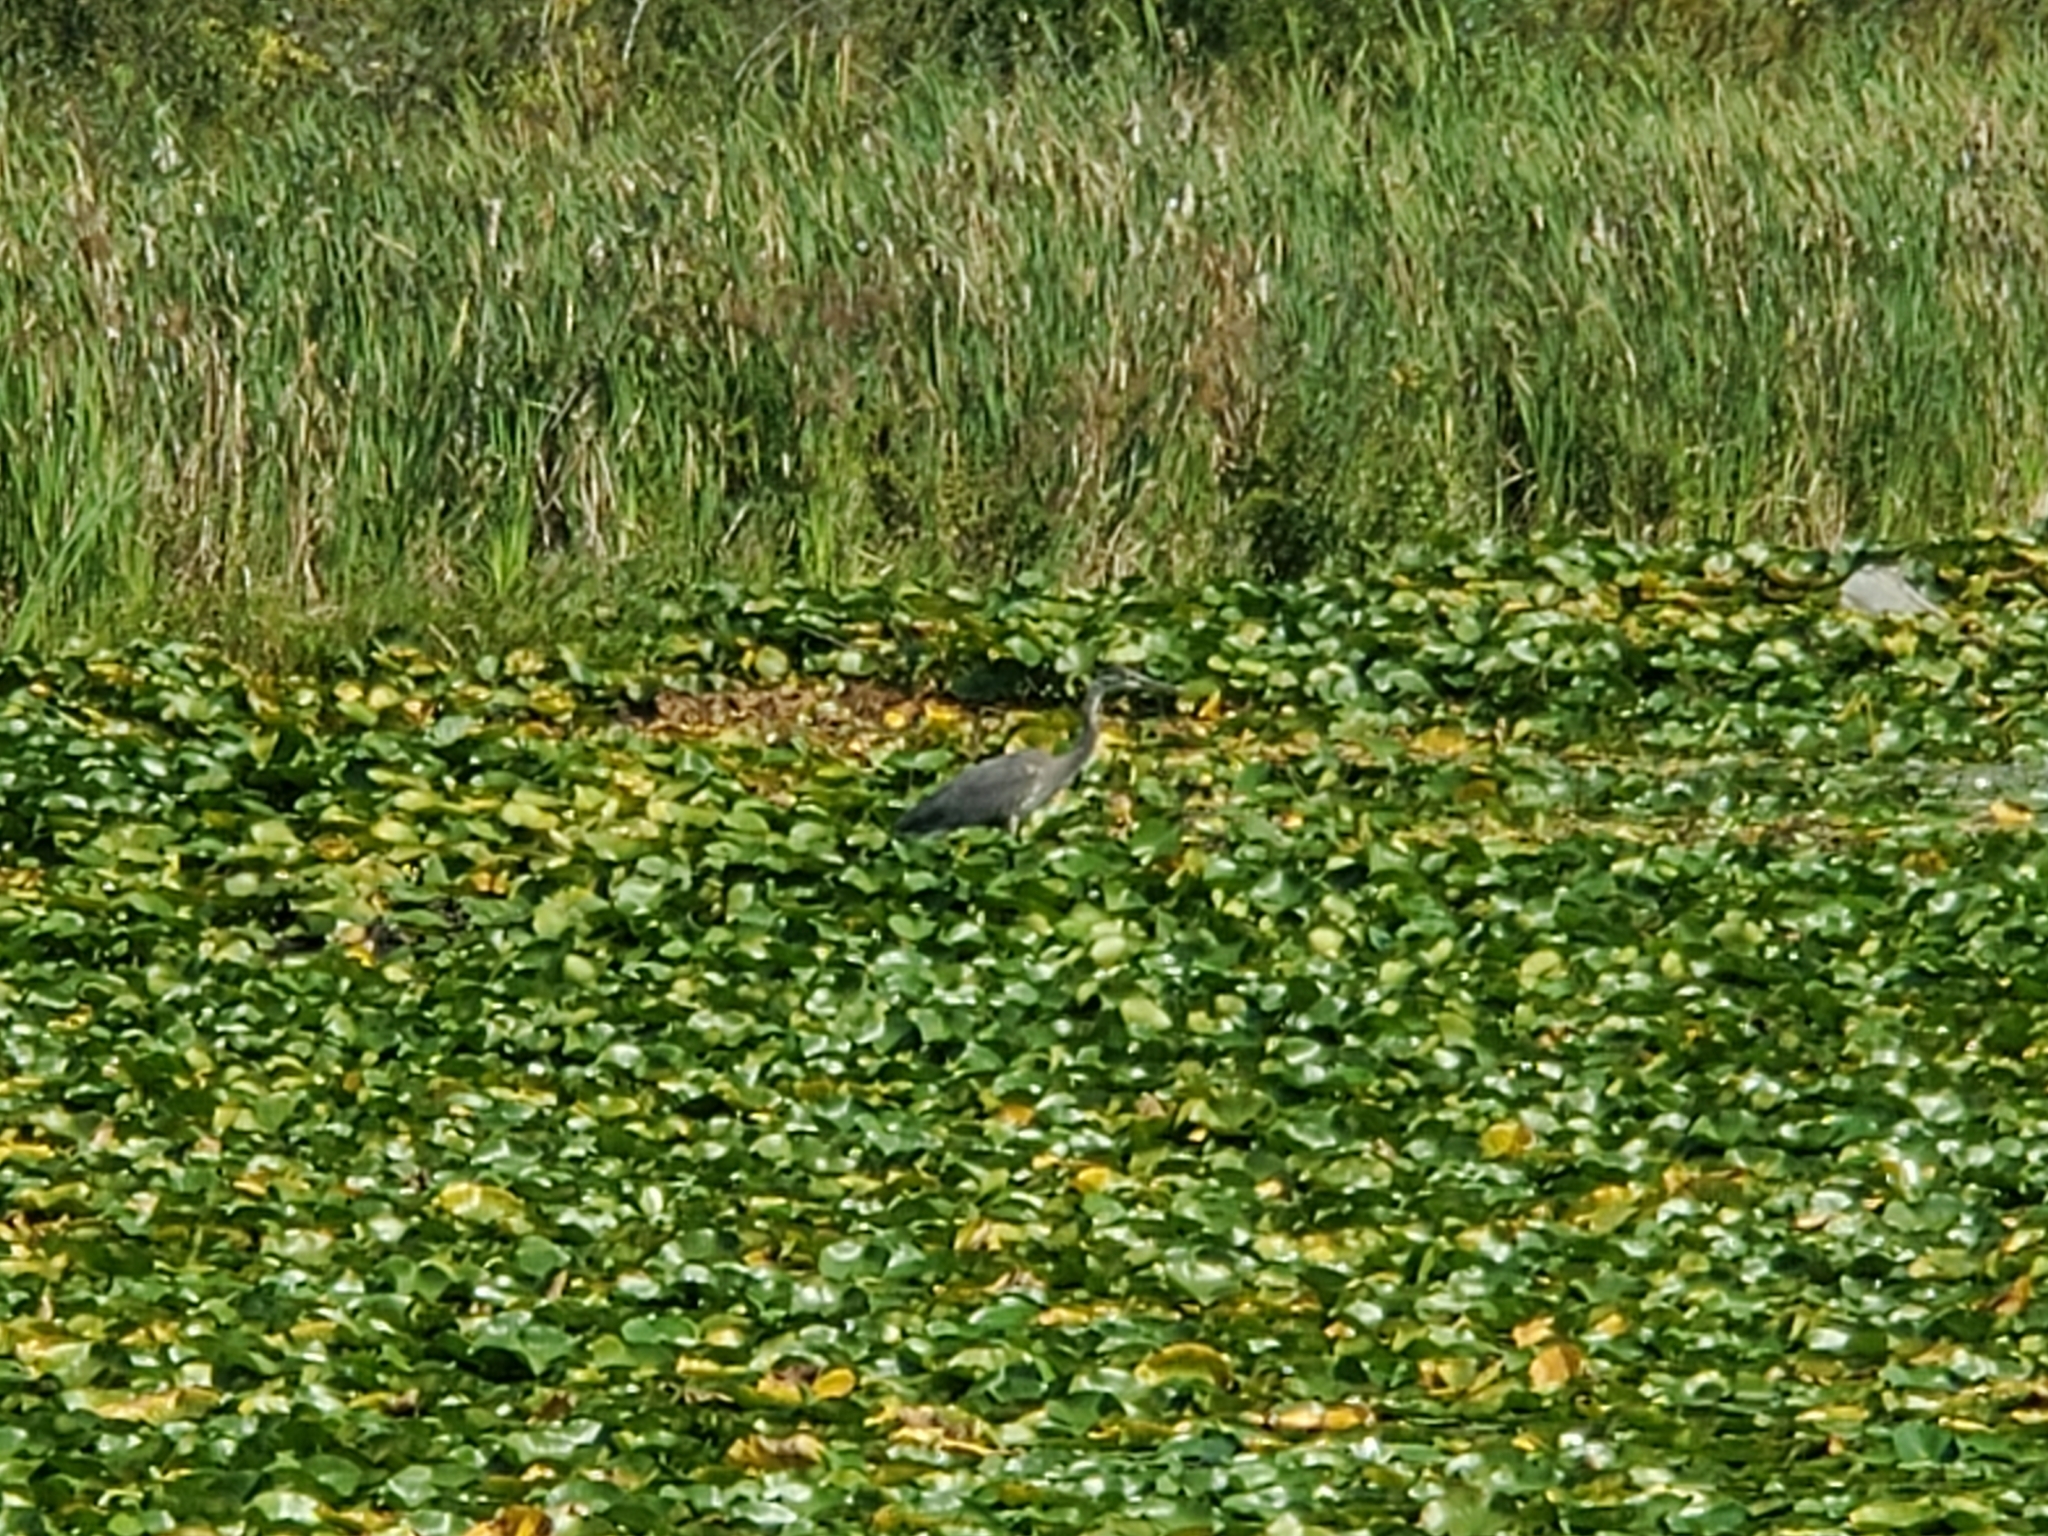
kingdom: Animalia
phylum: Chordata
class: Aves
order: Pelecaniformes
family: Ardeidae
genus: Ardea
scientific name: Ardea herodias
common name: Great blue heron
